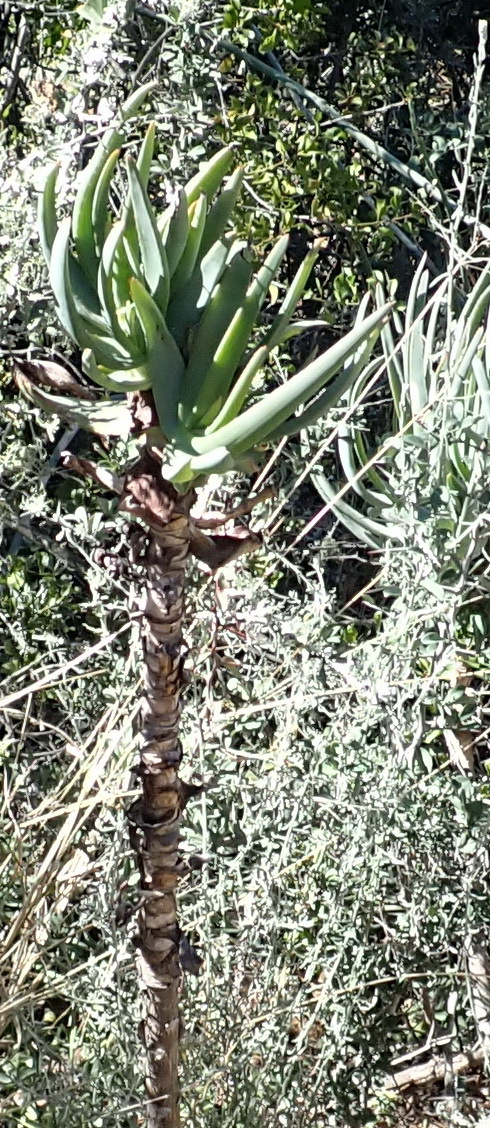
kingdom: Plantae
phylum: Tracheophyta
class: Liliopsida
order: Asparagales
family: Asphodelaceae
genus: Aloe
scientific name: Aloe speciosa
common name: Beautiful aloe
